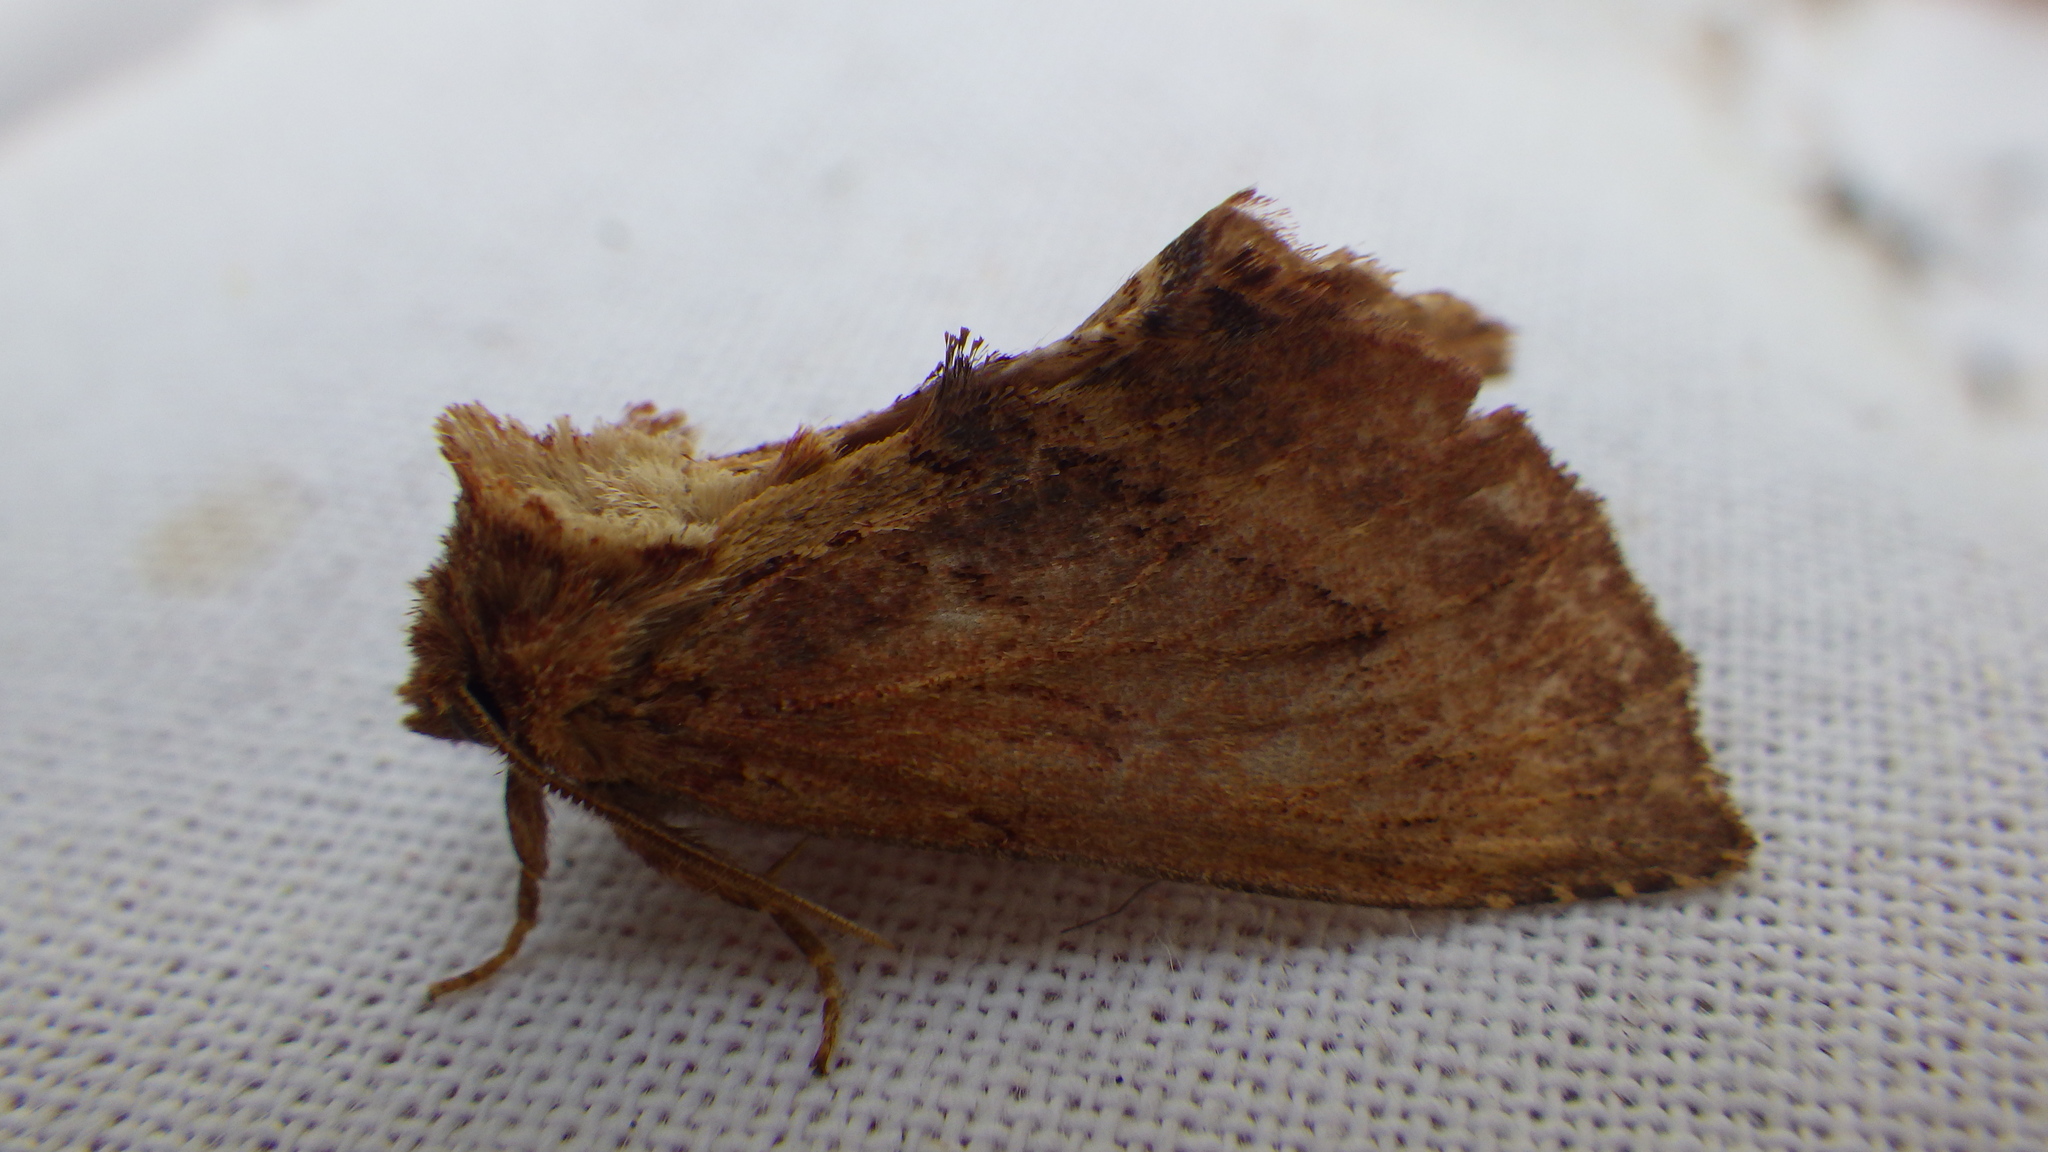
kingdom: Animalia
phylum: Arthropoda
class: Insecta
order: Lepidoptera
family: Notodontidae
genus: Ptilodon
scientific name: Ptilodon capucina
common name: Coxcomb prominent
